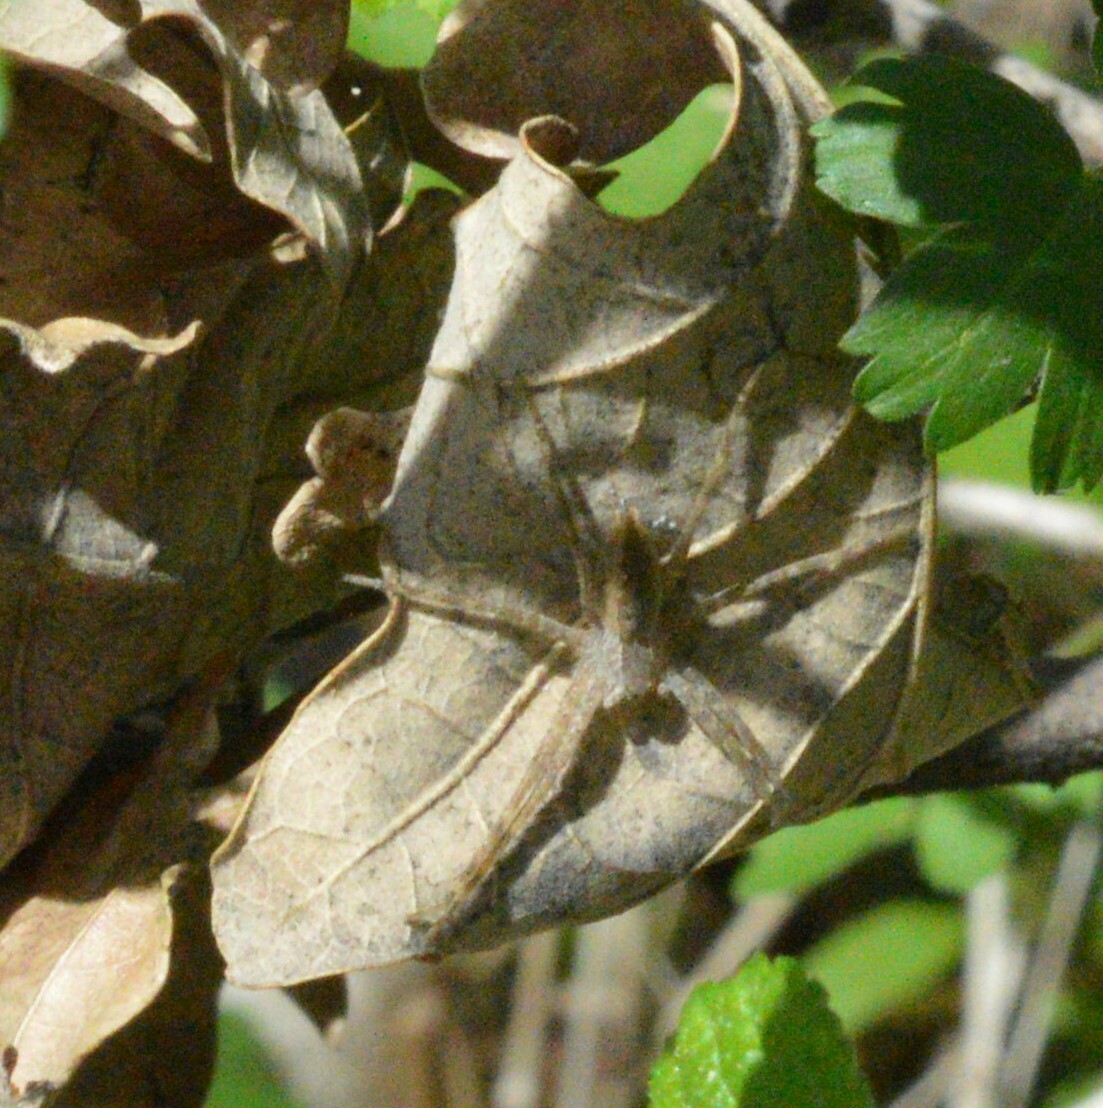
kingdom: Animalia
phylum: Arthropoda
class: Arachnida
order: Araneae
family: Pisauridae
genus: Pisaurina
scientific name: Pisaurina mira
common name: American nursery web spider
